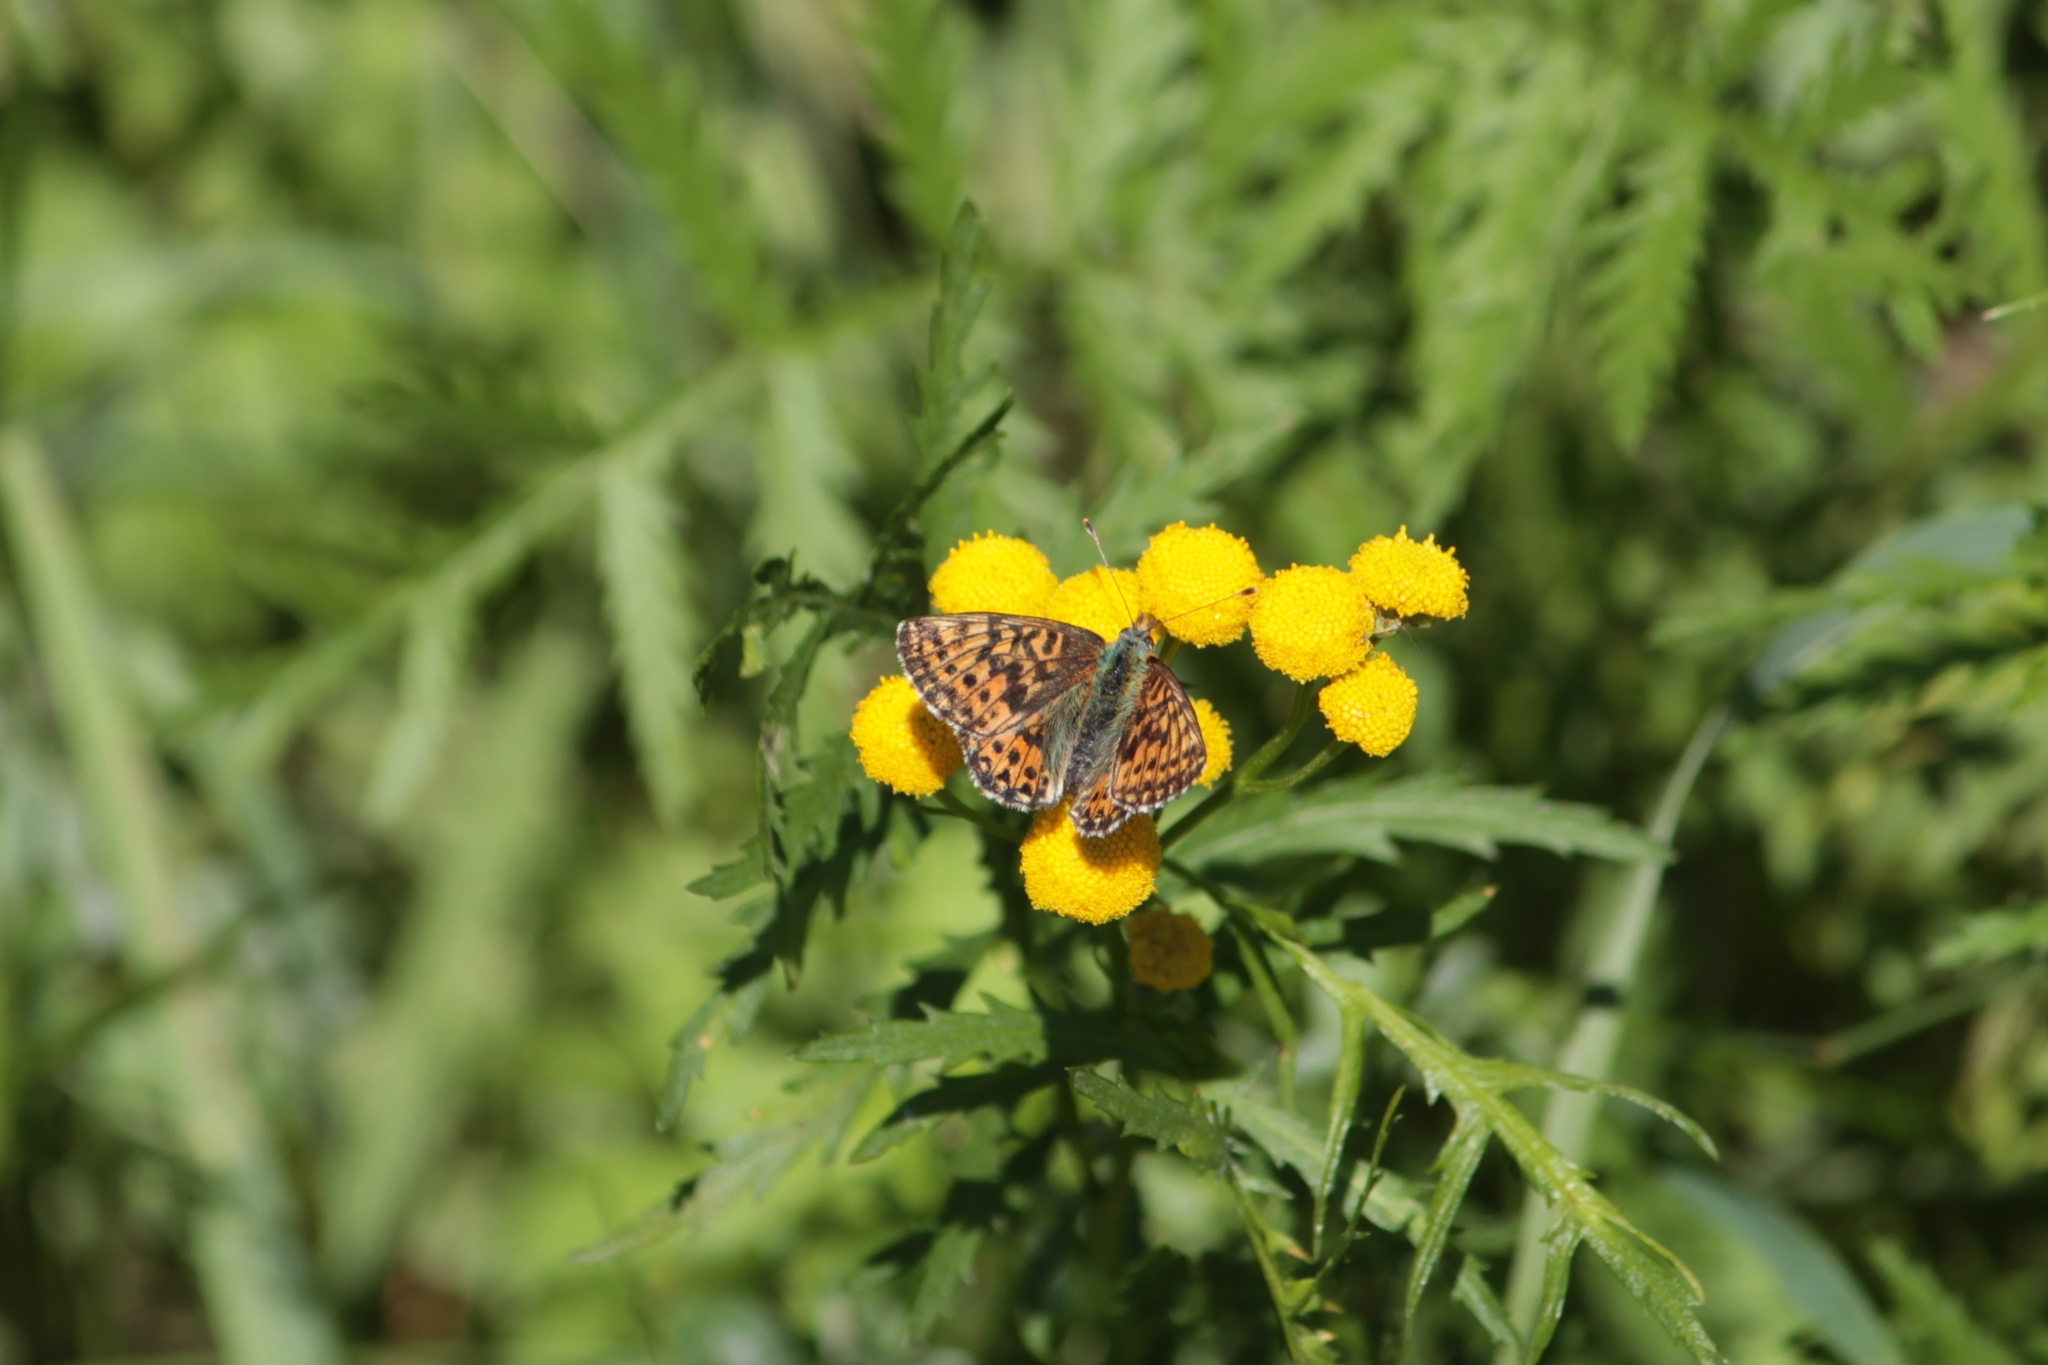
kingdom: Animalia
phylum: Arthropoda
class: Insecta
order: Lepidoptera
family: Nymphalidae
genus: Boloria
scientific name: Boloria aquilonaris
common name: Cranberry fritillary
